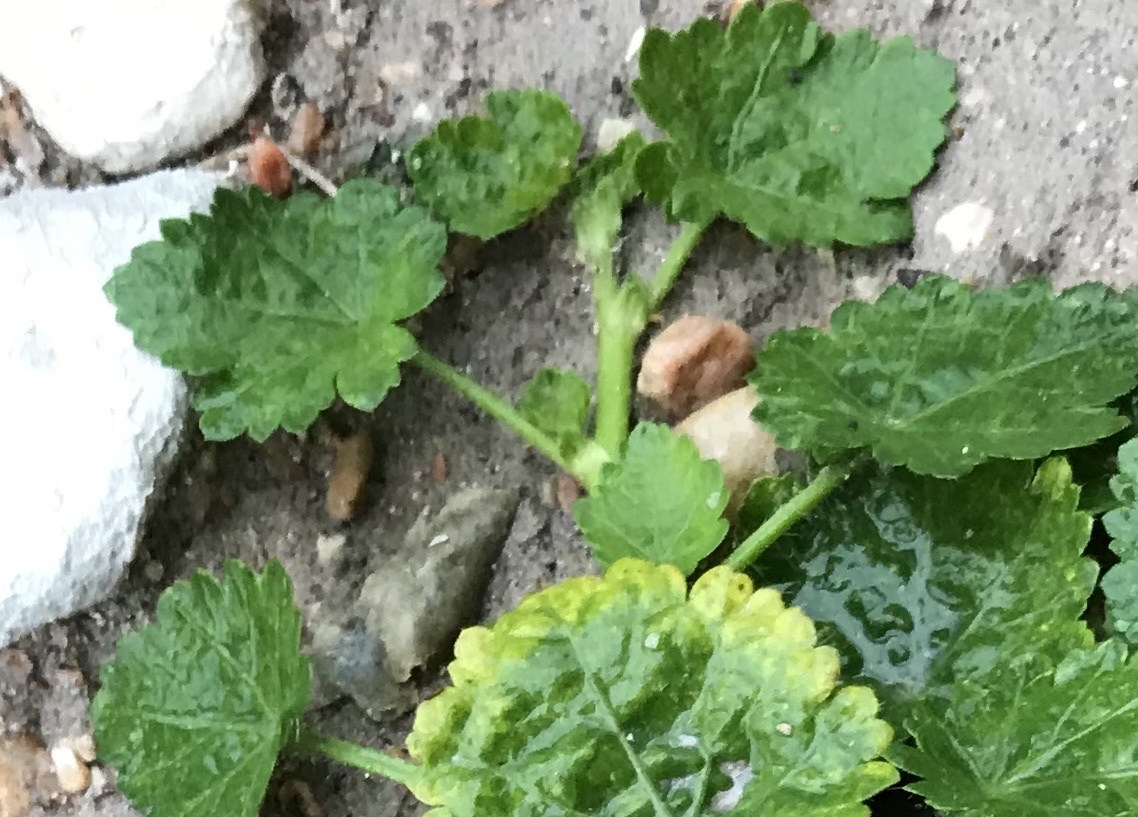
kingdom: Plantae
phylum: Tracheophyta
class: Magnoliopsida
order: Malvales
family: Malvaceae
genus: Modiola
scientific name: Modiola caroliniana
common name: Carolina bristlemallow
